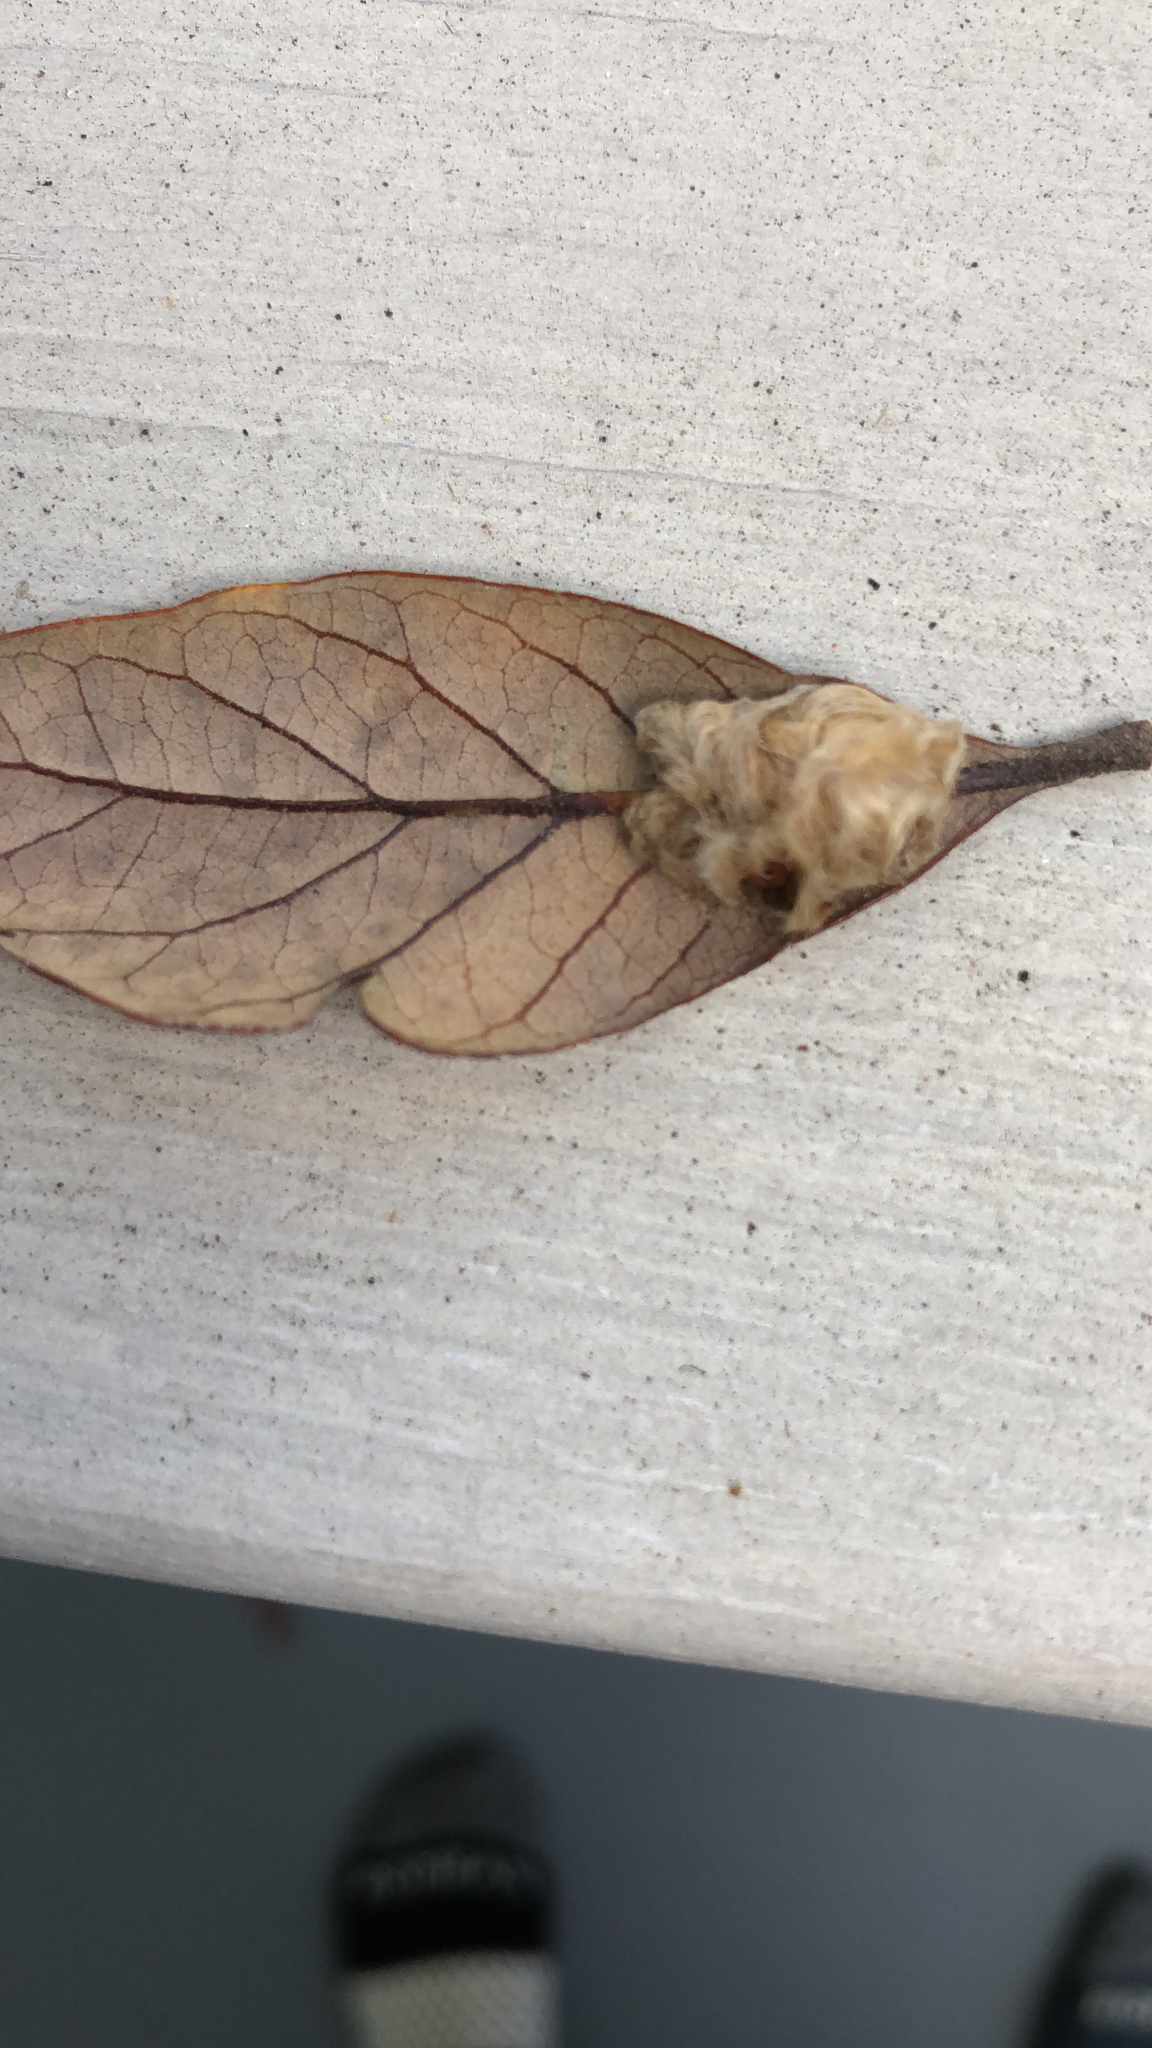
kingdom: Animalia
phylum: Arthropoda
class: Insecta
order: Hymenoptera
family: Cynipidae
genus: Andricus
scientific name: Andricus Druon quercuslanigerum
